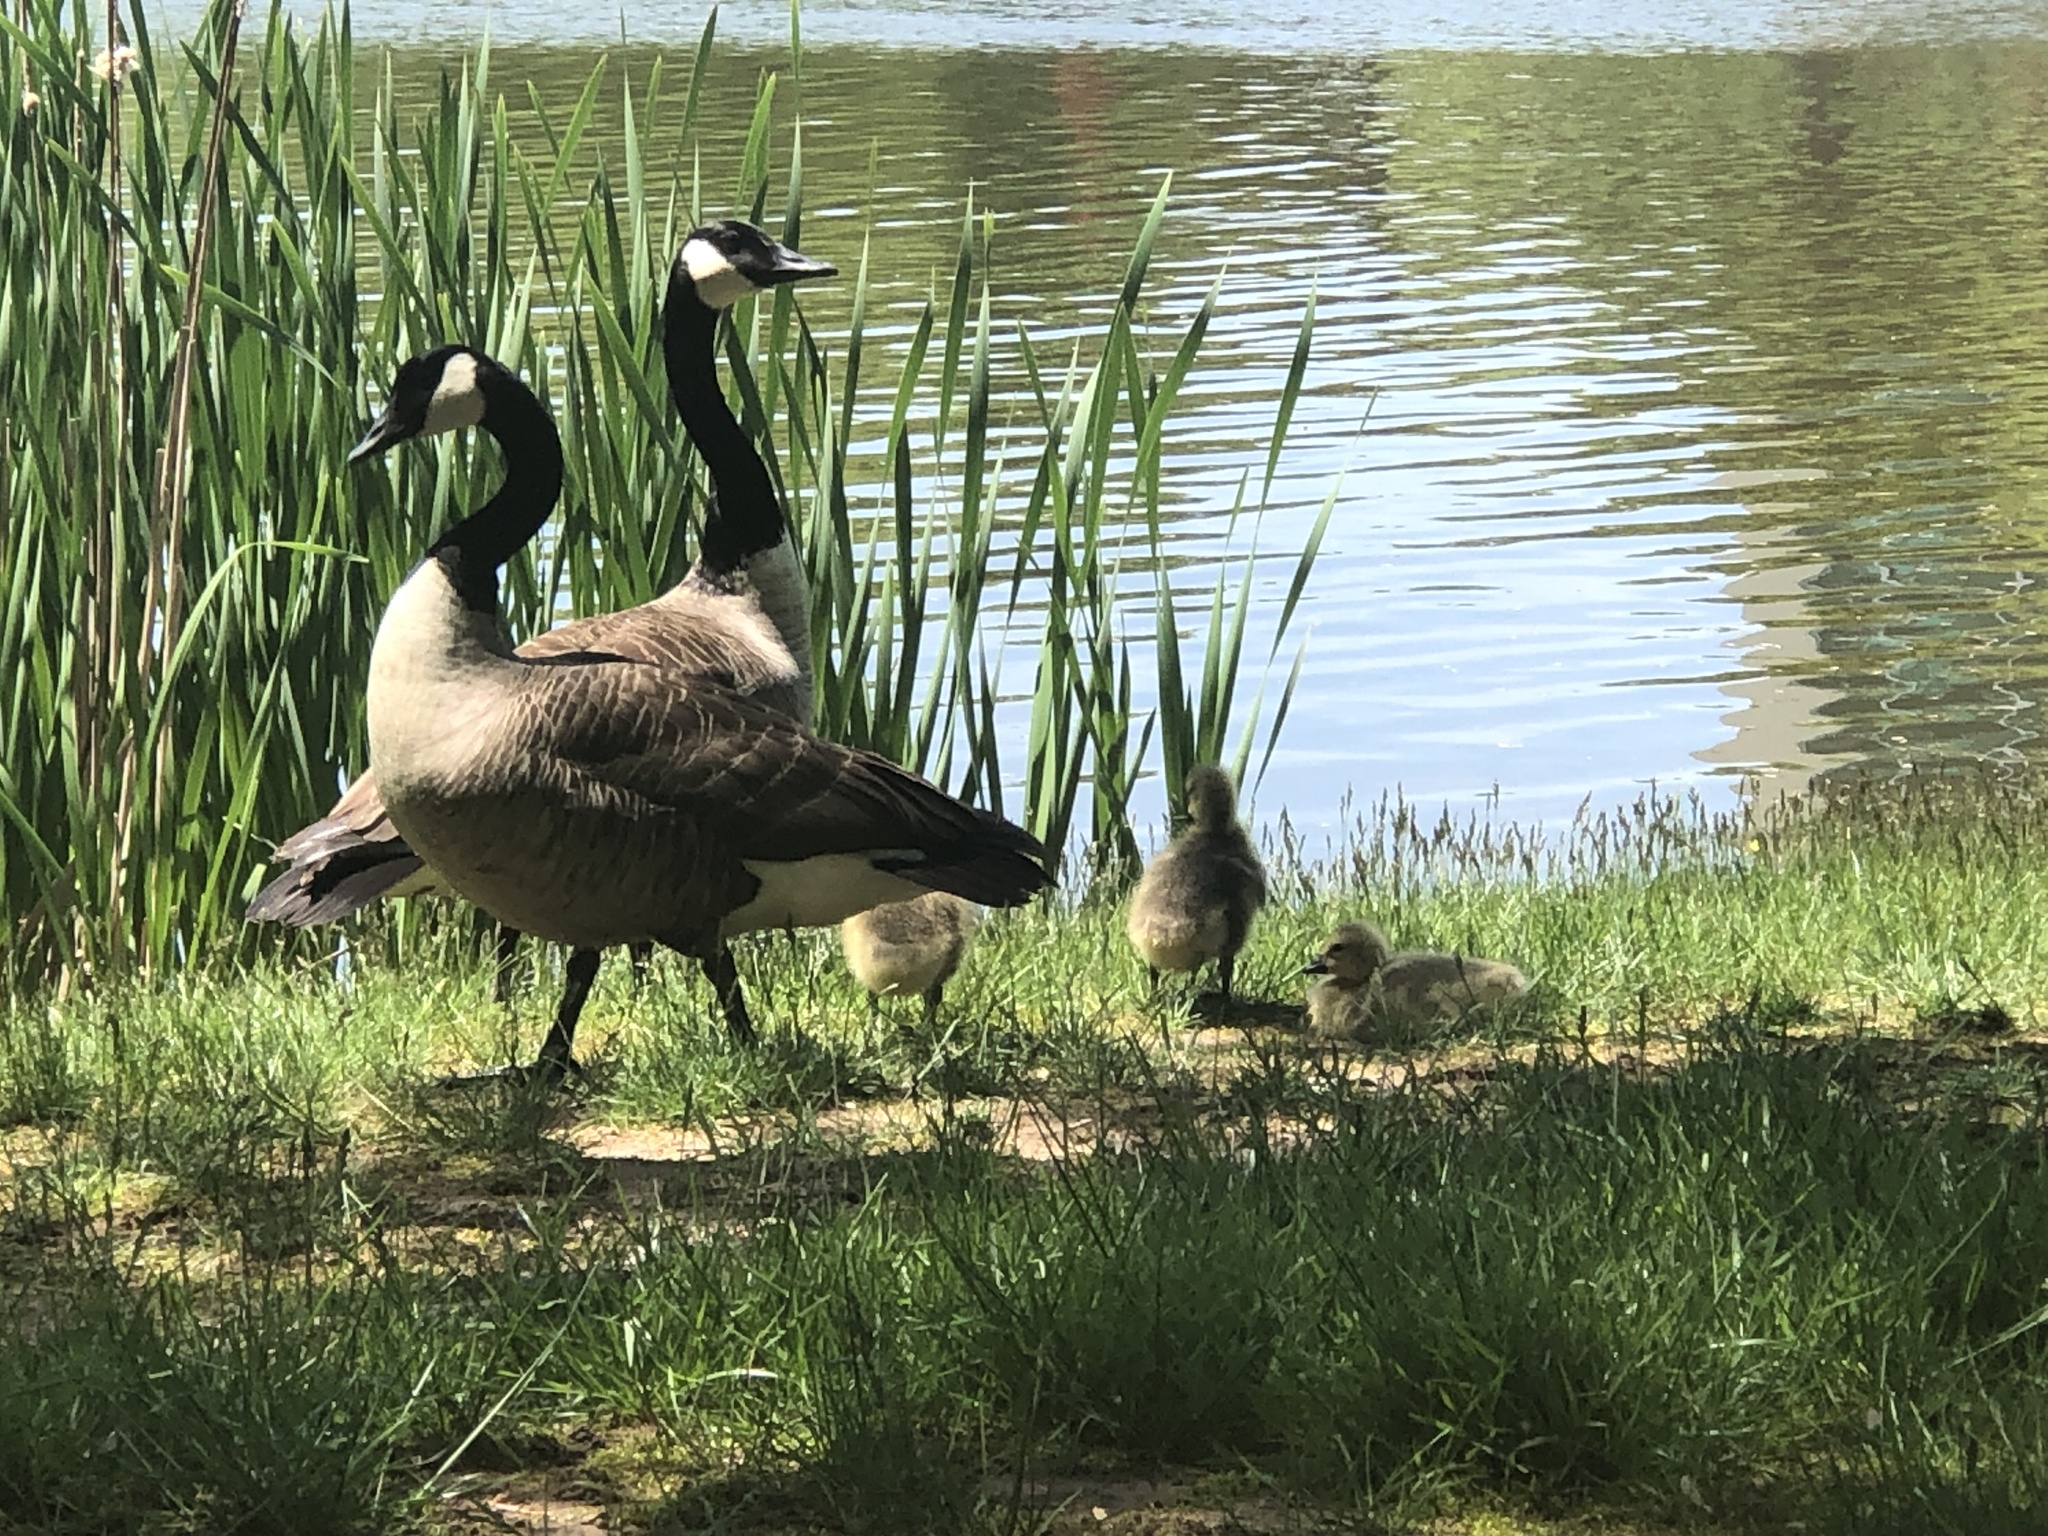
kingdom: Animalia
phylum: Chordata
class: Aves
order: Anseriformes
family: Anatidae
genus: Branta
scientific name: Branta canadensis
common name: Canada goose
